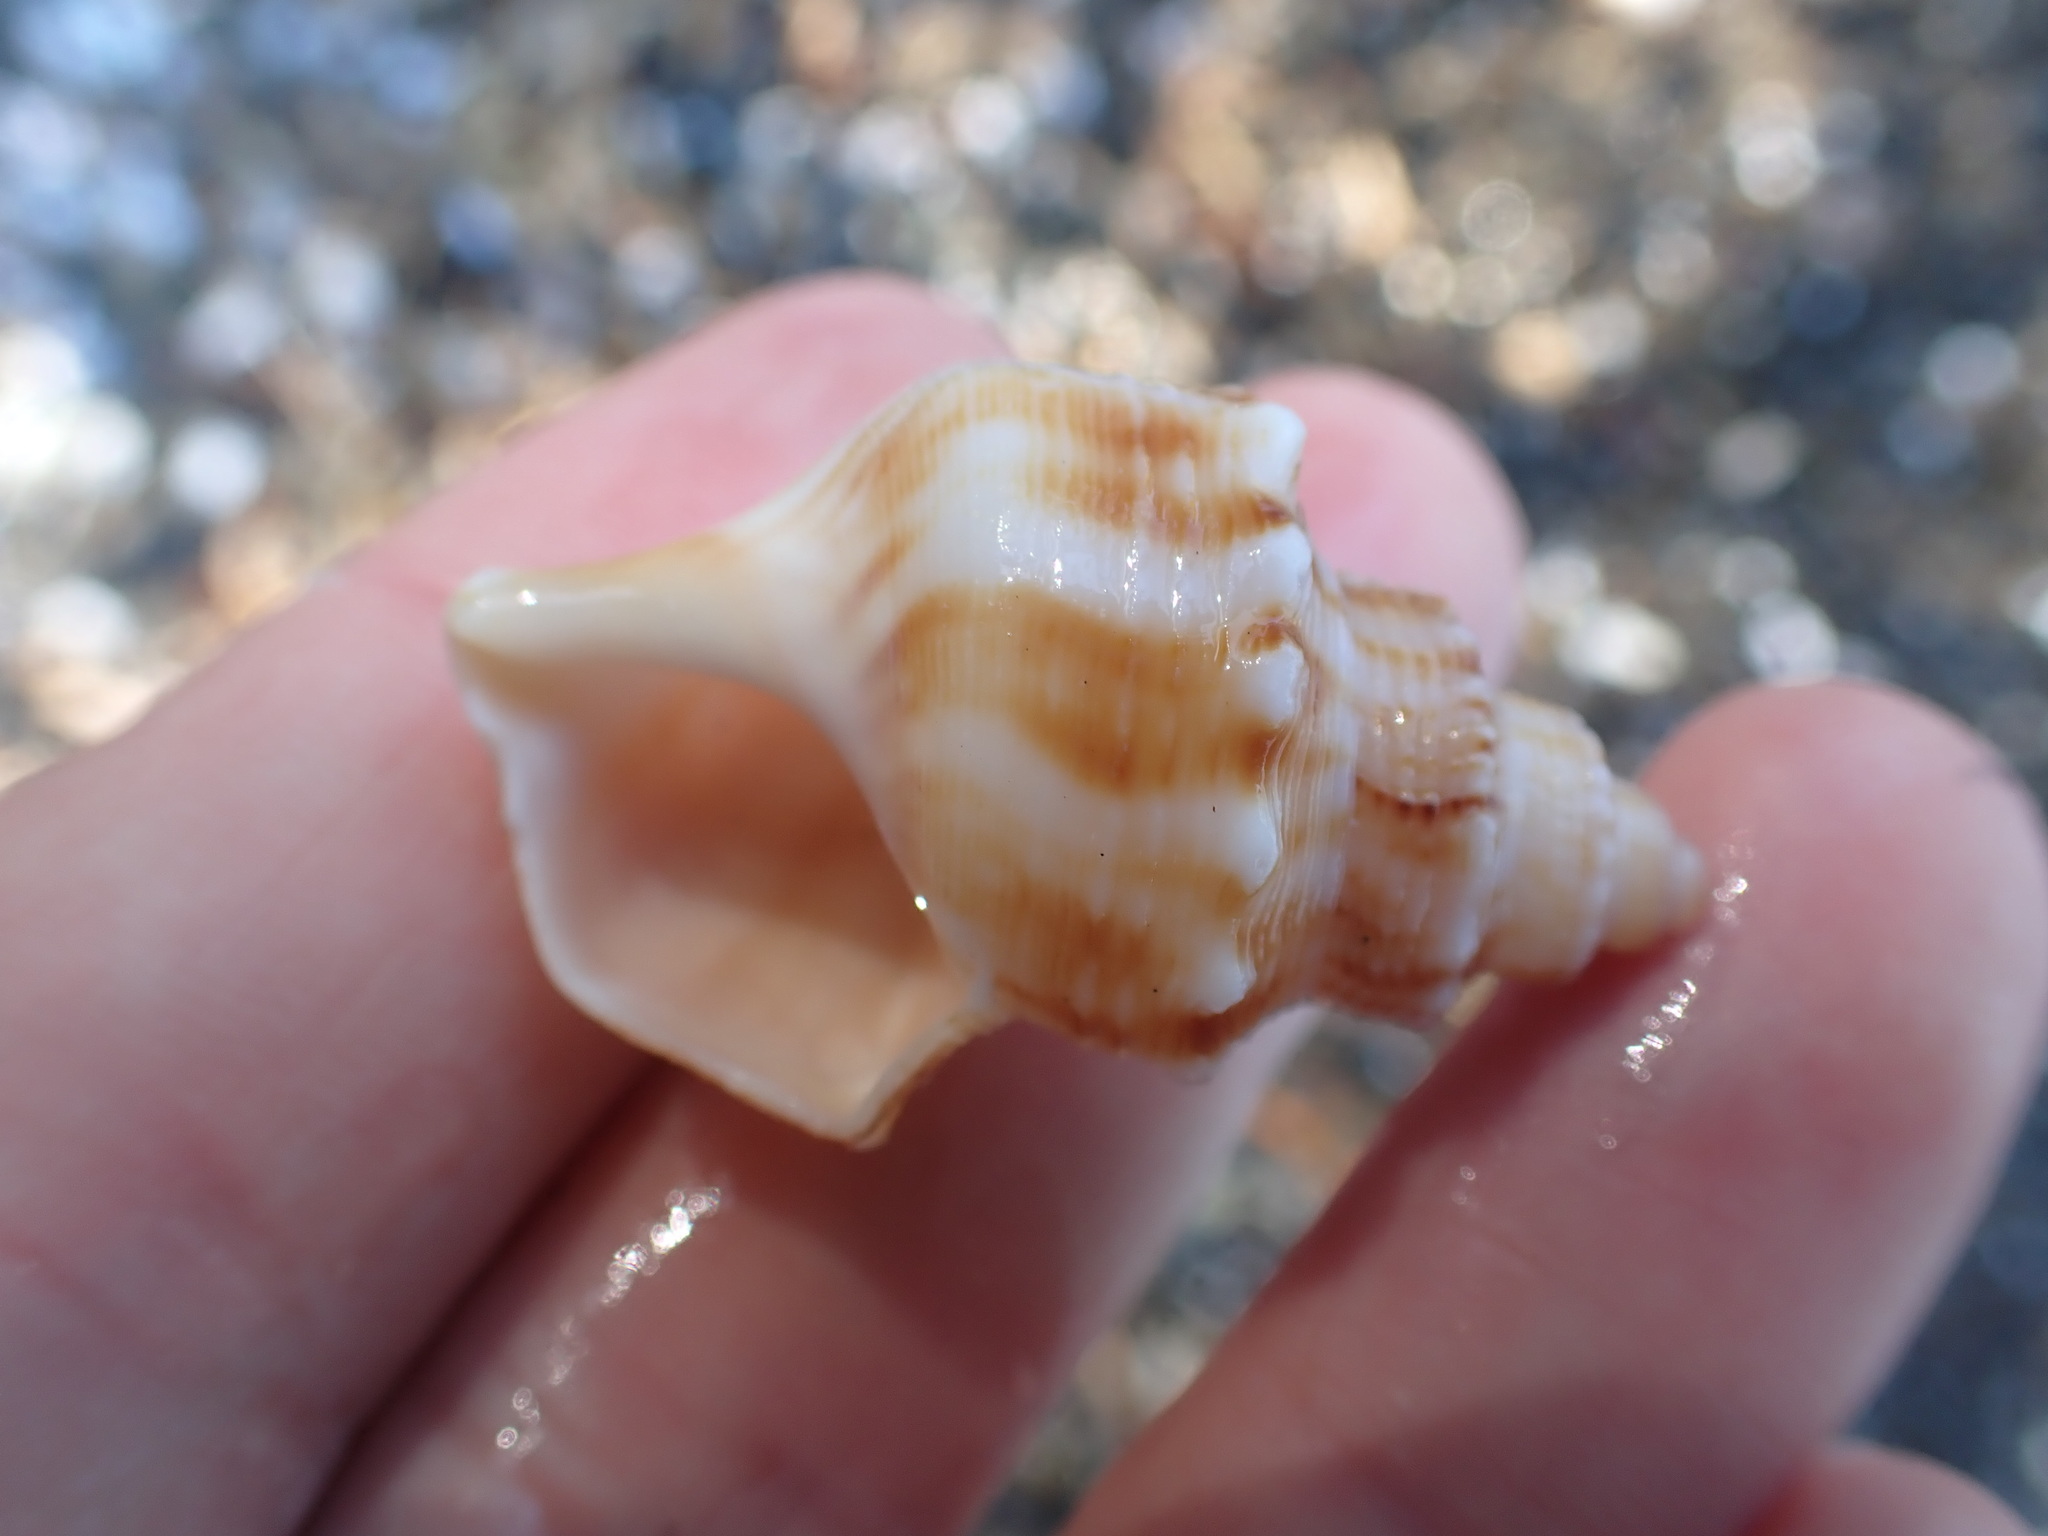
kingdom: Animalia
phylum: Mollusca
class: Gastropoda
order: Littorinimorpha
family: Struthiolariidae
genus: Struthiolaria
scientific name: Struthiolaria papulosa
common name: Large ostrich foot
